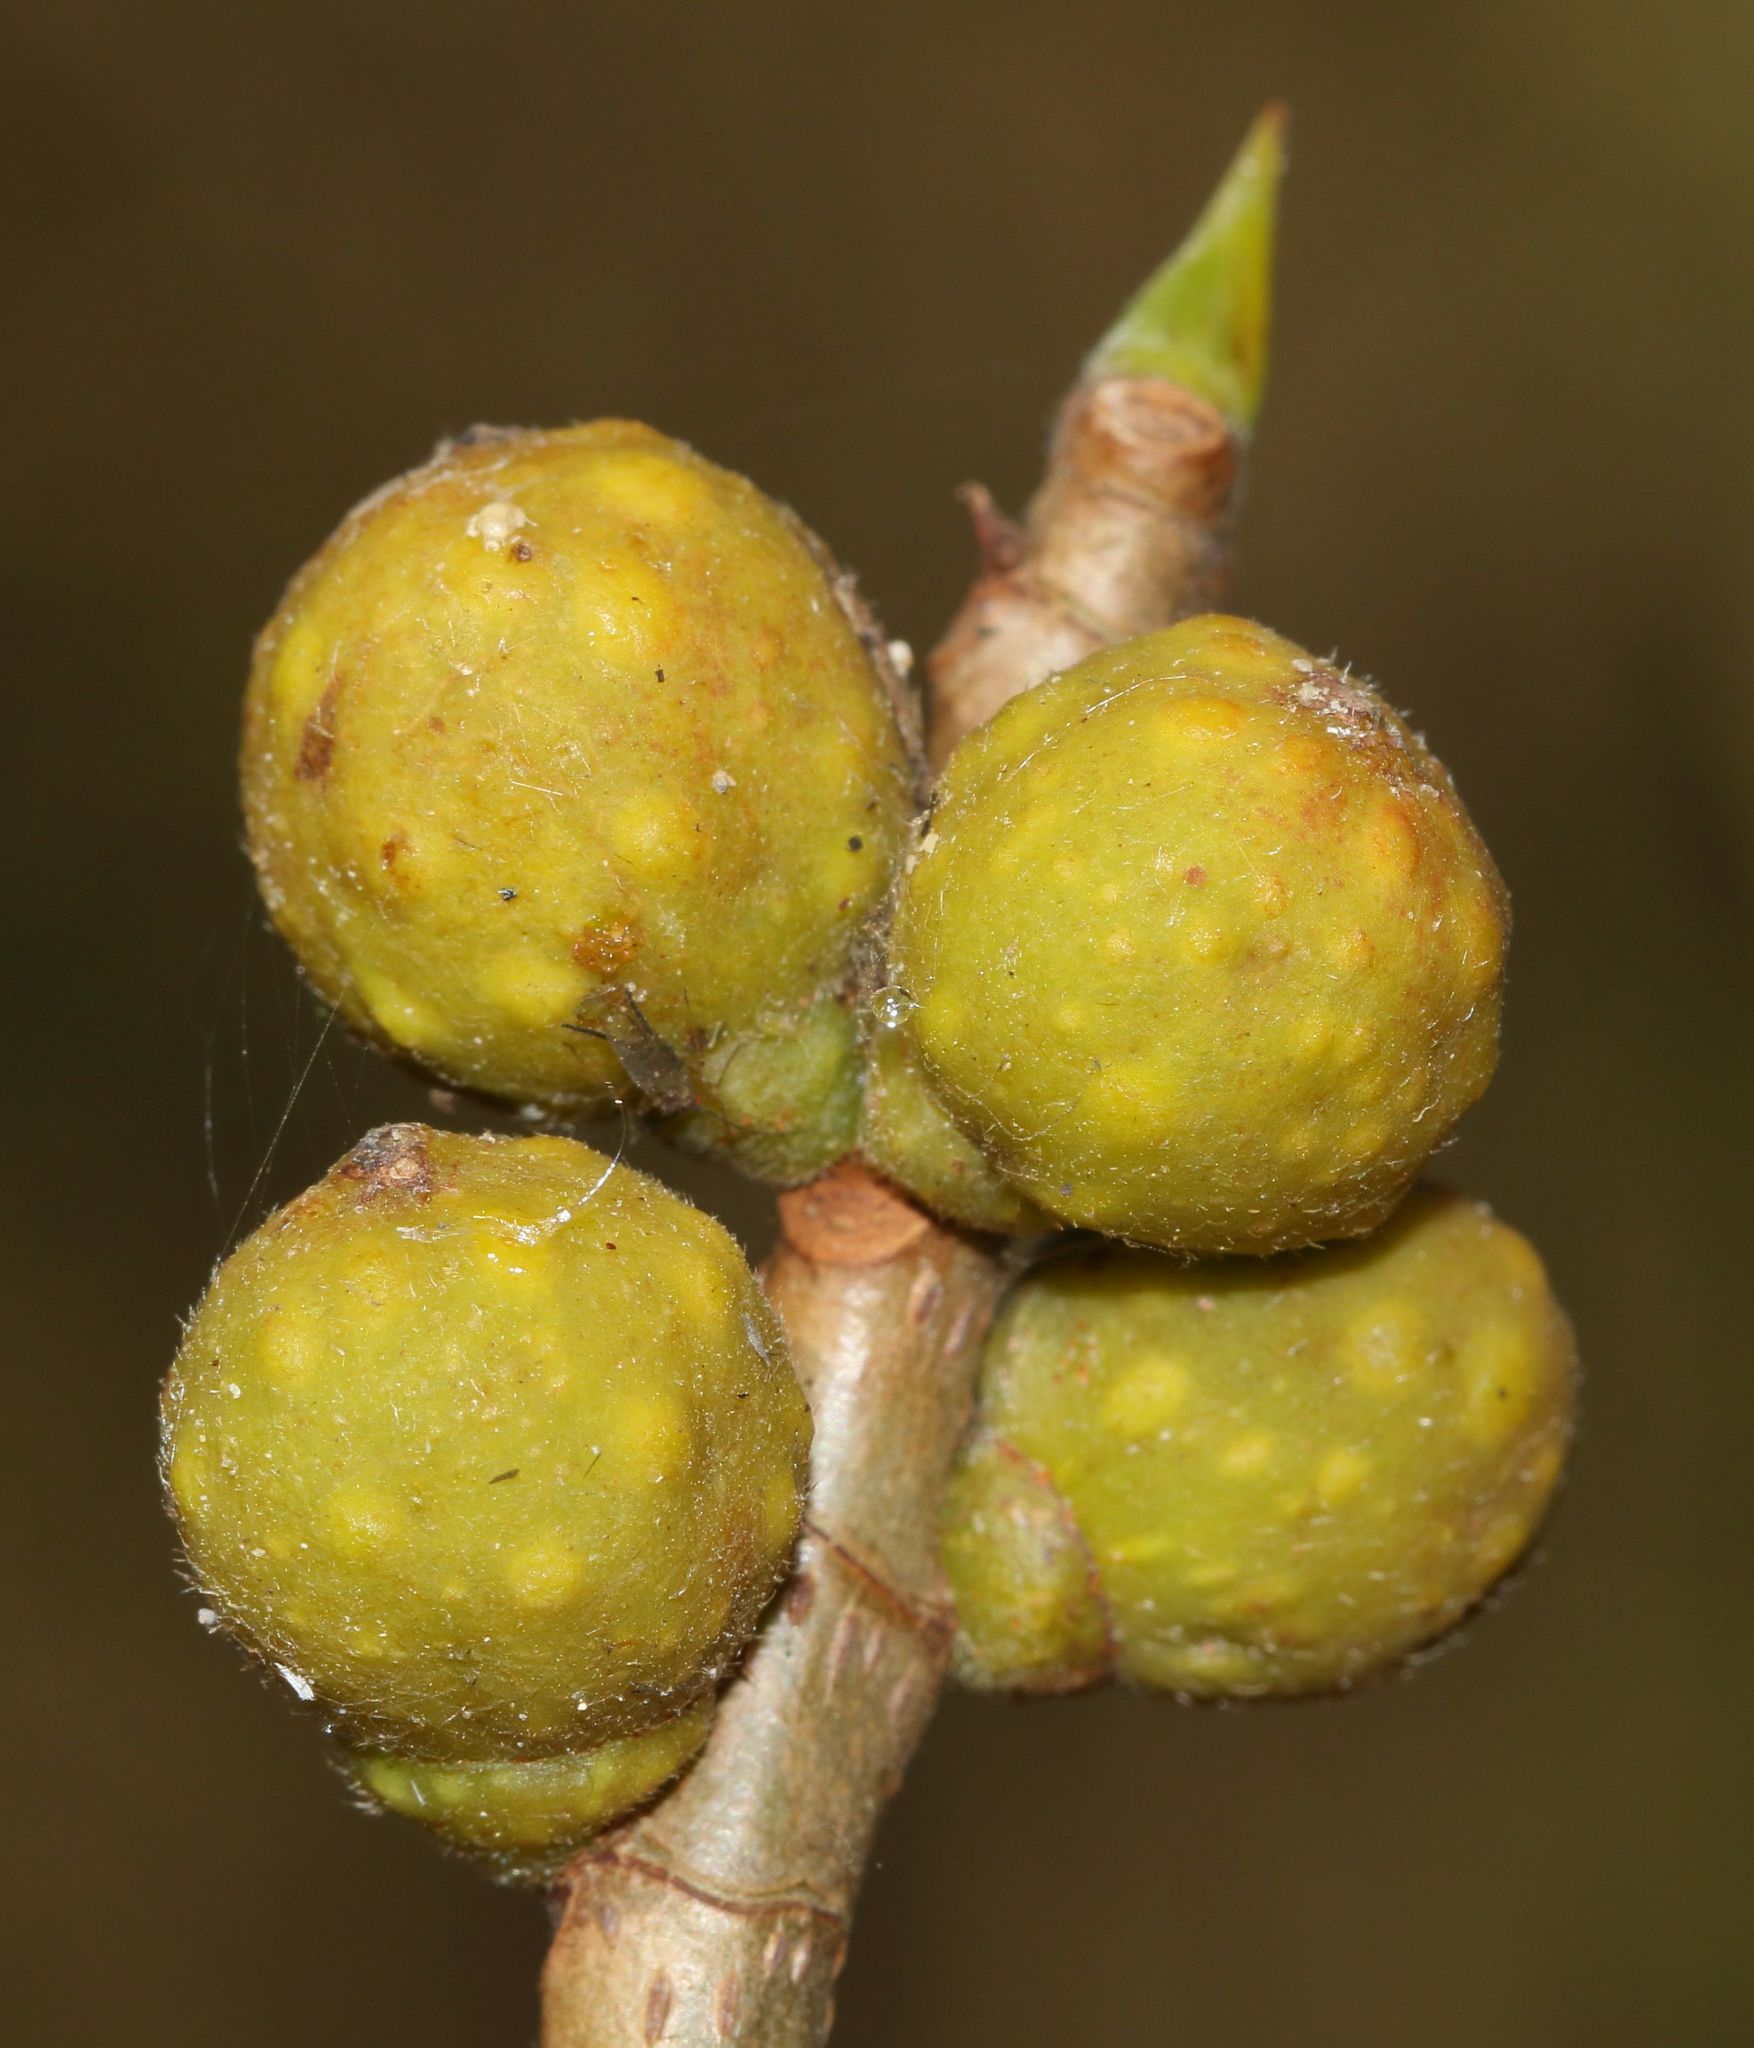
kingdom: Plantae
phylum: Tracheophyta
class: Magnoliopsida
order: Rosales
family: Moraceae
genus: Ficus
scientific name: Ficus thonningii
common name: Fig
